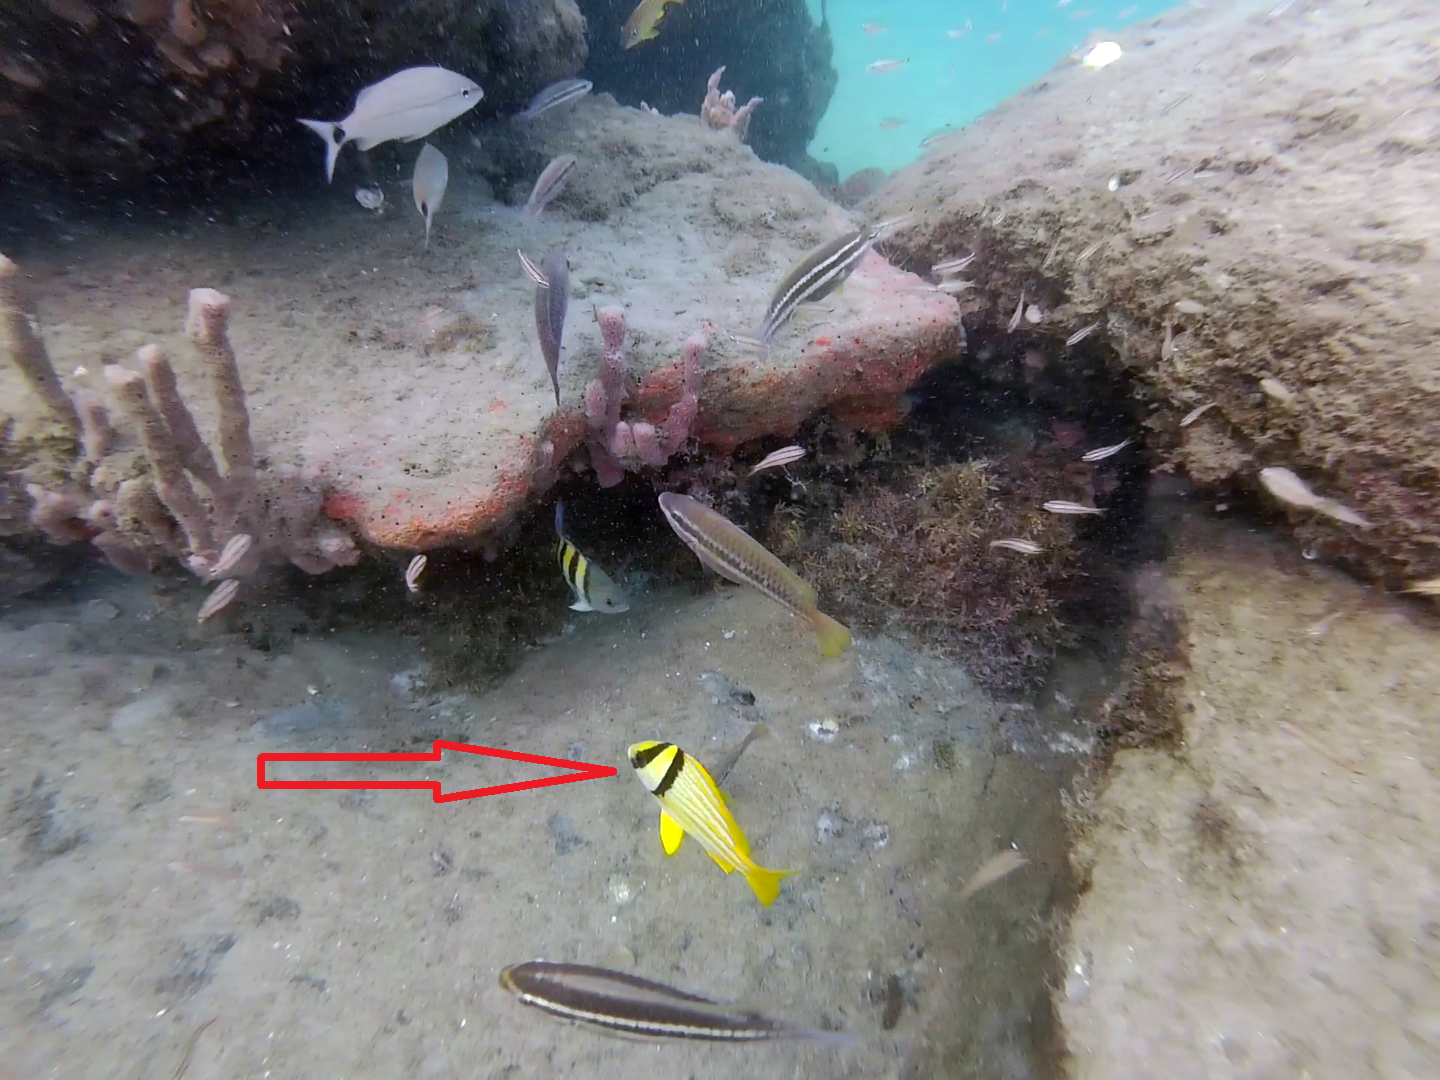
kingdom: Animalia
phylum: Chordata
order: Perciformes
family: Haemulidae
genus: Anisotremus
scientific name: Anisotremus virginicus
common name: Porkfish
